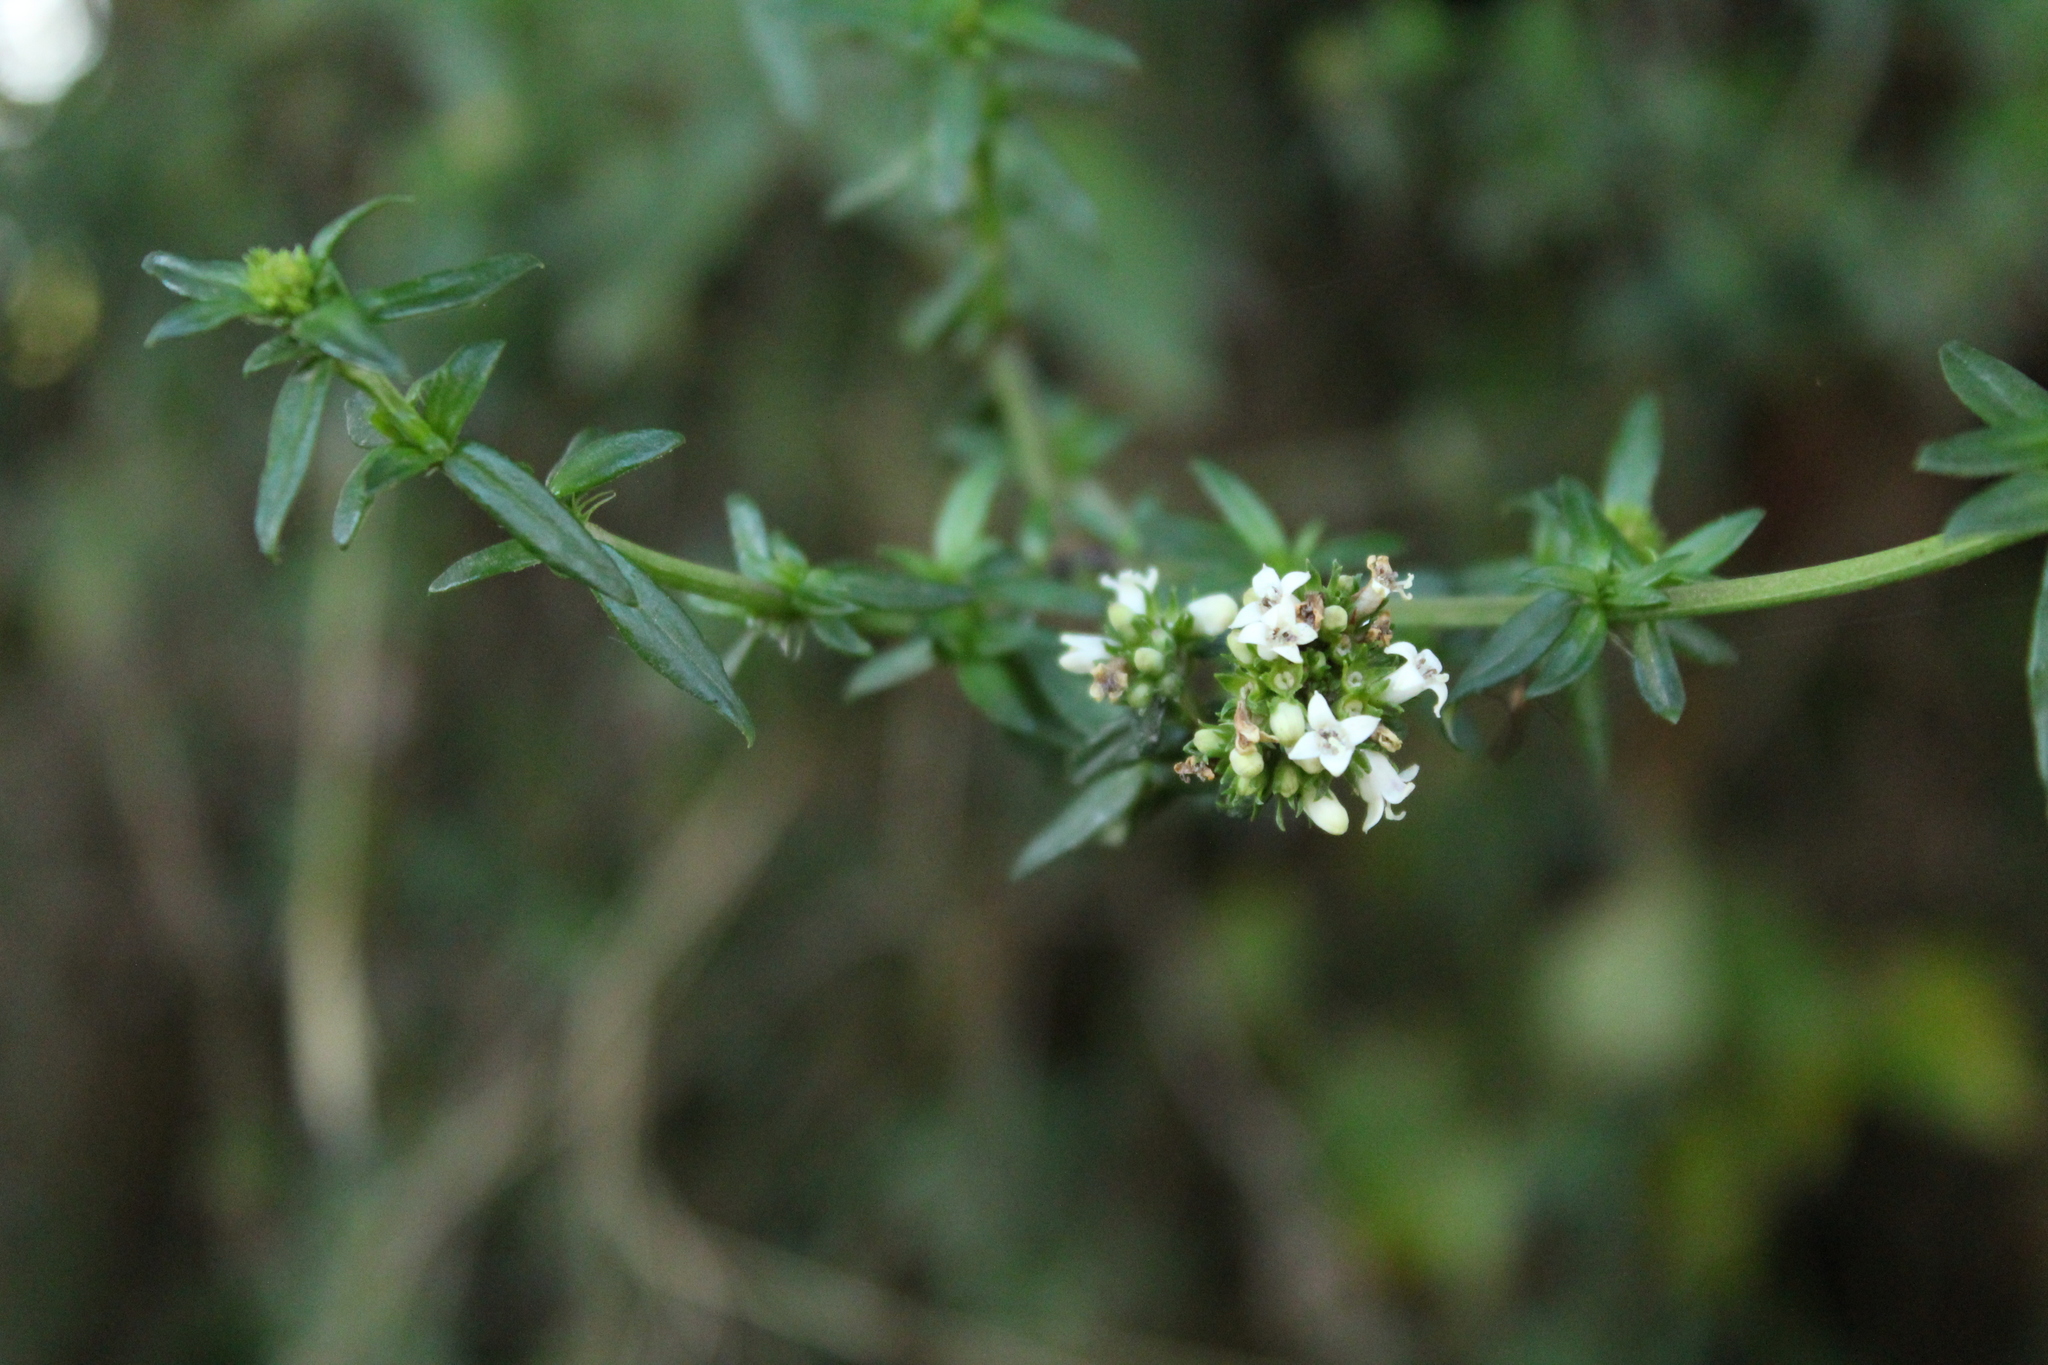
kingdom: Plantae
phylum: Tracheophyta
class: Magnoliopsida
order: Gentianales
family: Rubiaceae
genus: Galianthe
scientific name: Galianthe bogotensis
